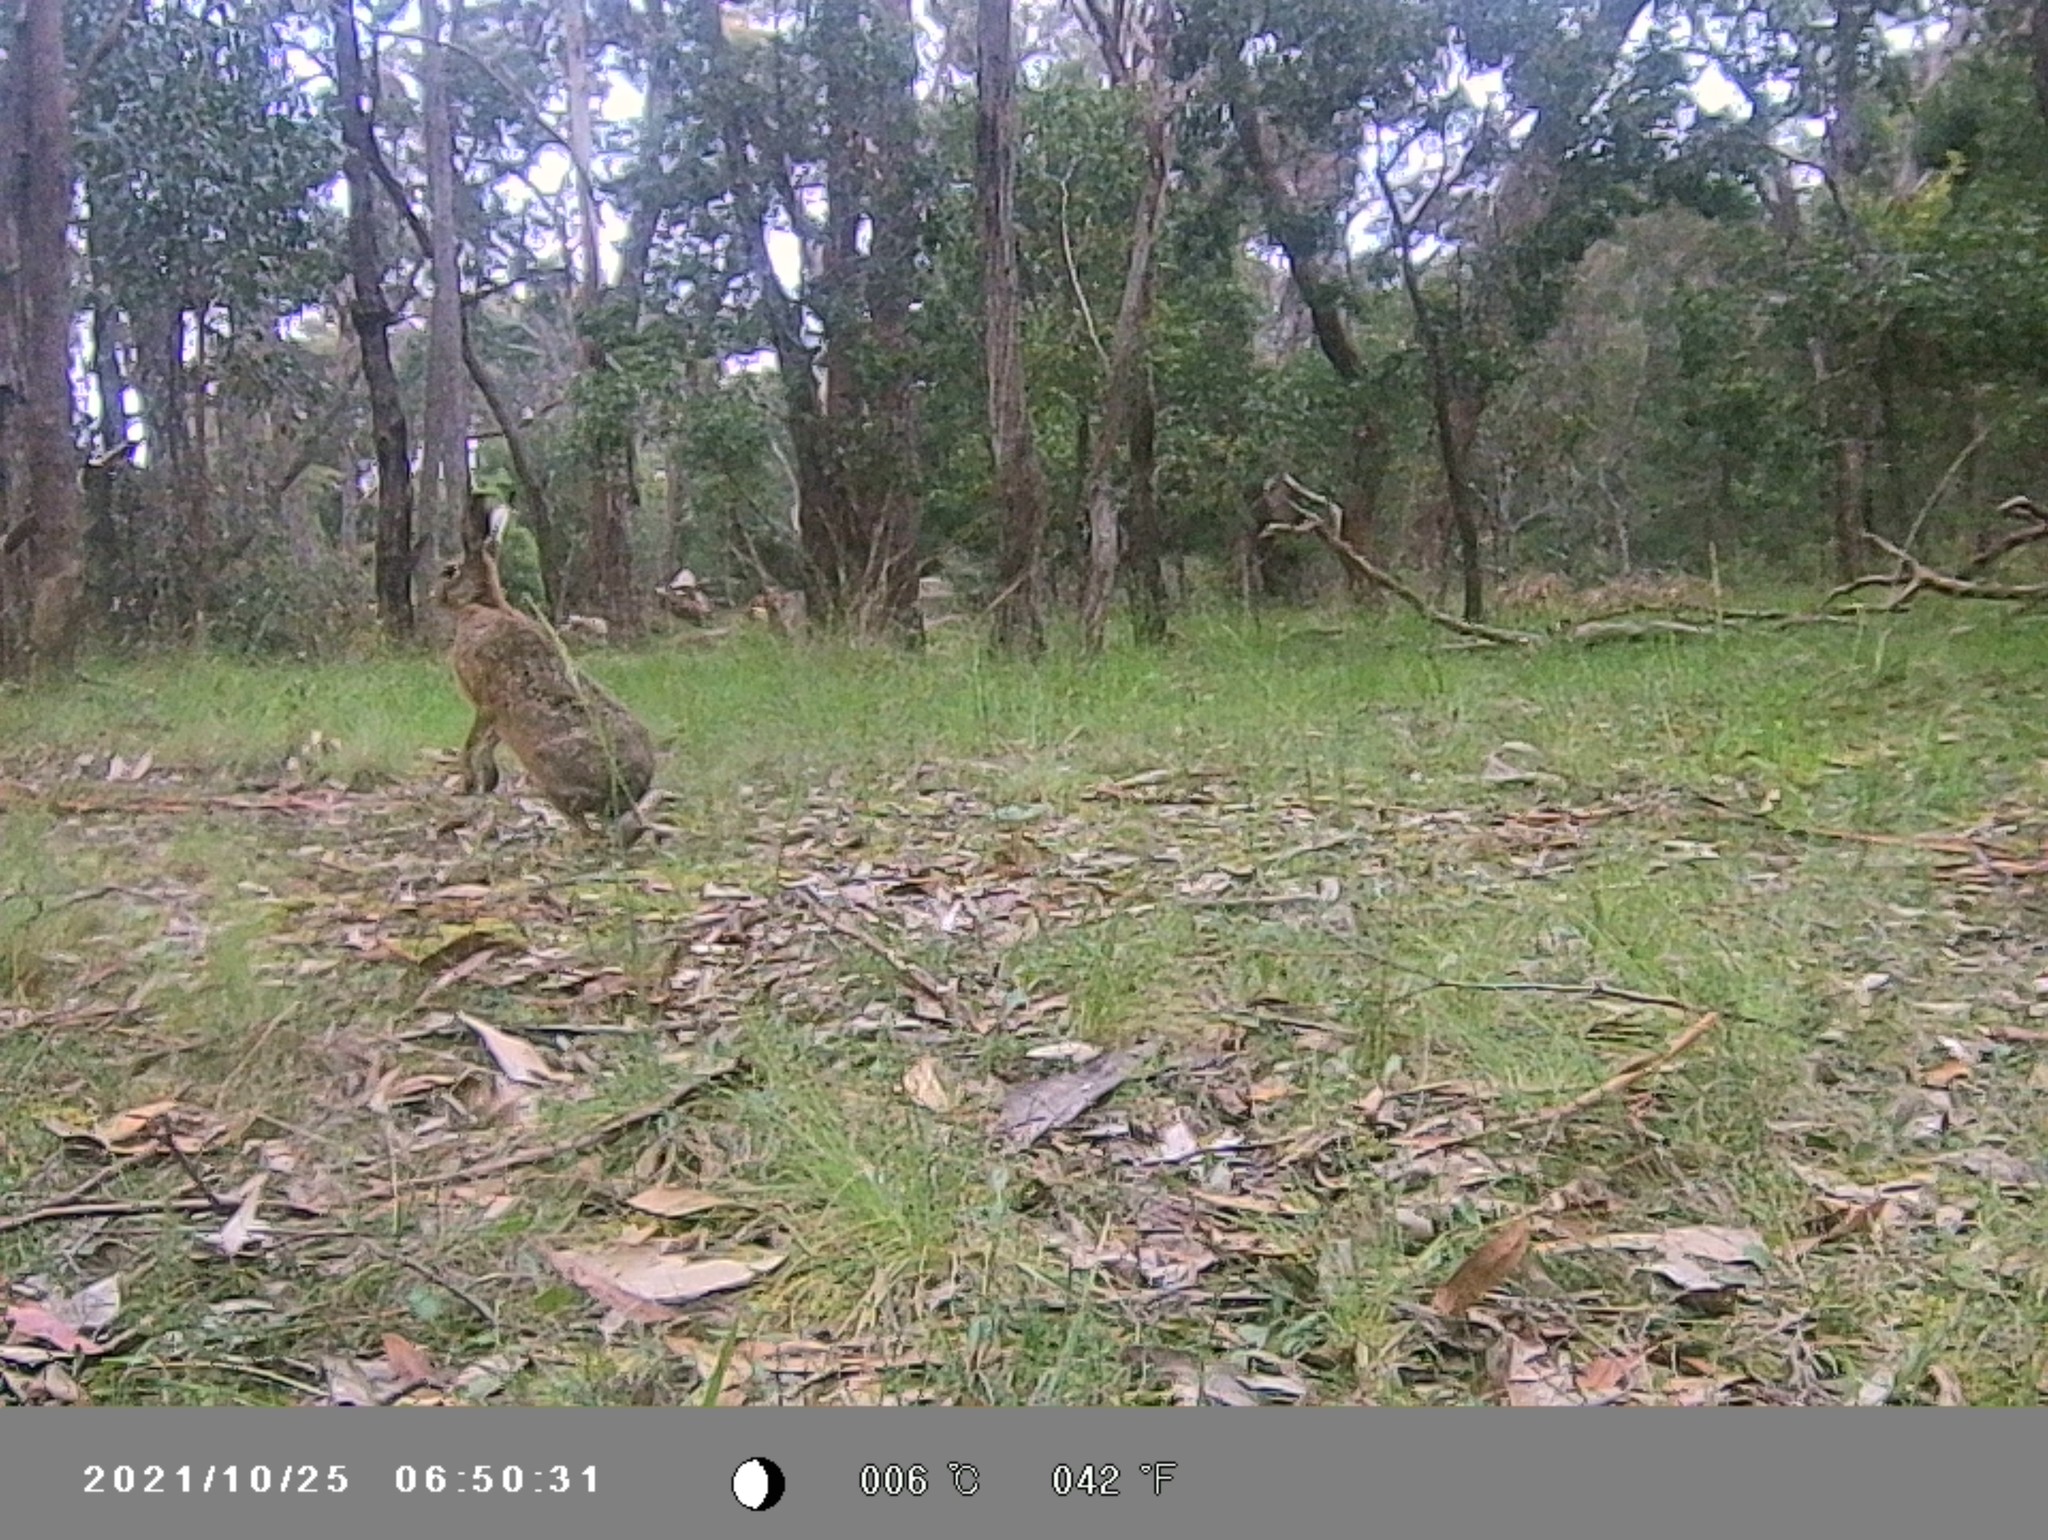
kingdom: Animalia
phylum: Chordata
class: Mammalia
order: Lagomorpha
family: Leporidae
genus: Lepus
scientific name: Lepus europaeus
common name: European hare
